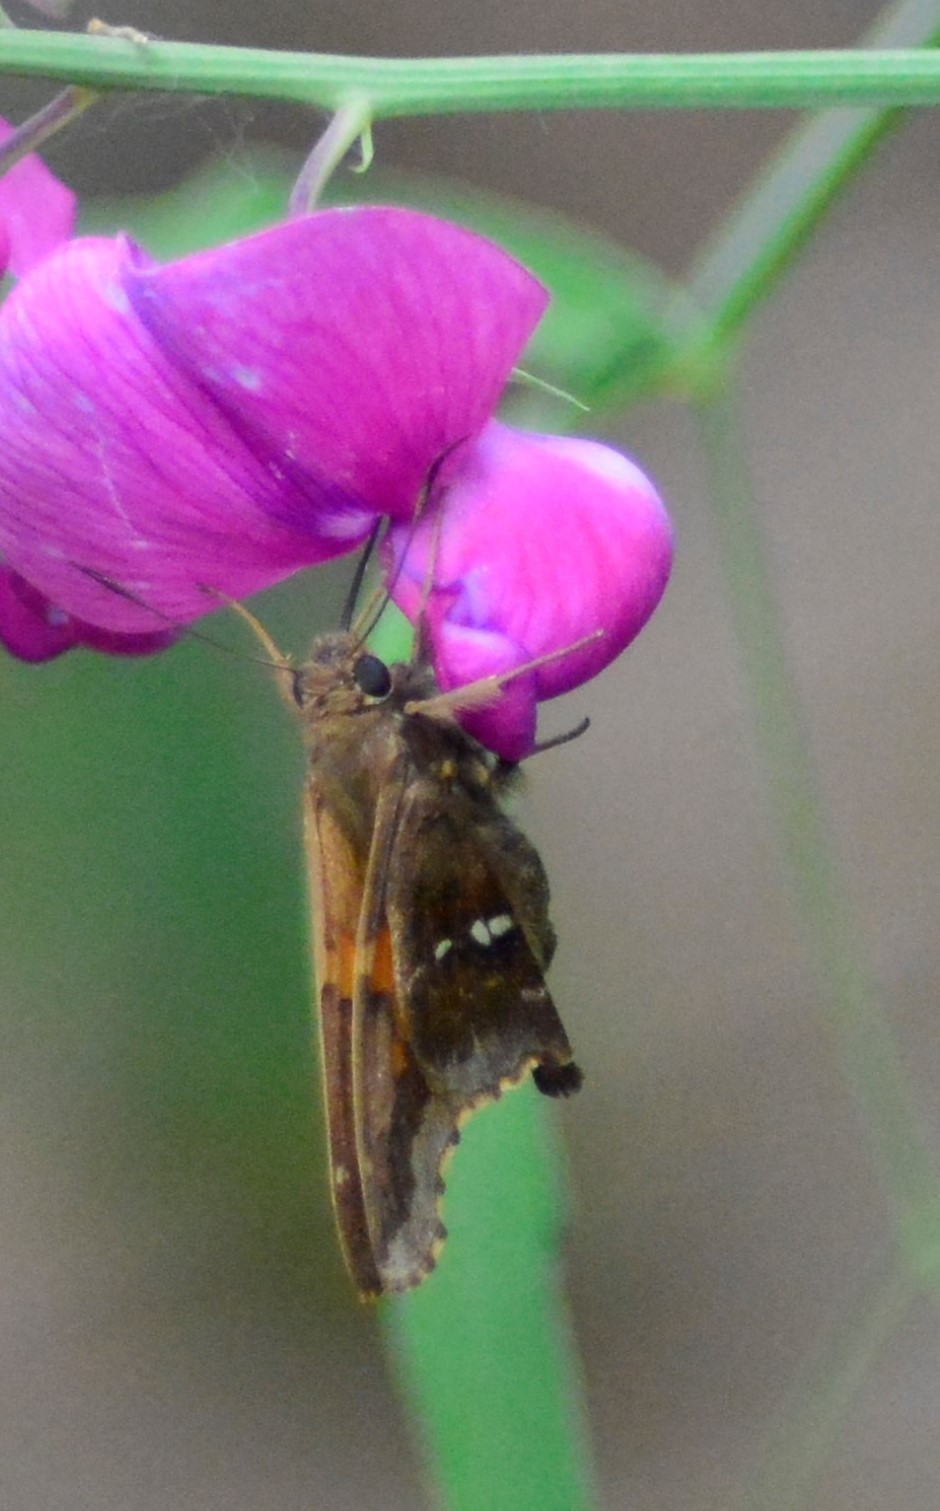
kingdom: Animalia
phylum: Arthropoda
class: Insecta
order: Lepidoptera
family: Hesperiidae
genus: Epargyreus
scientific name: Epargyreus tmolis
